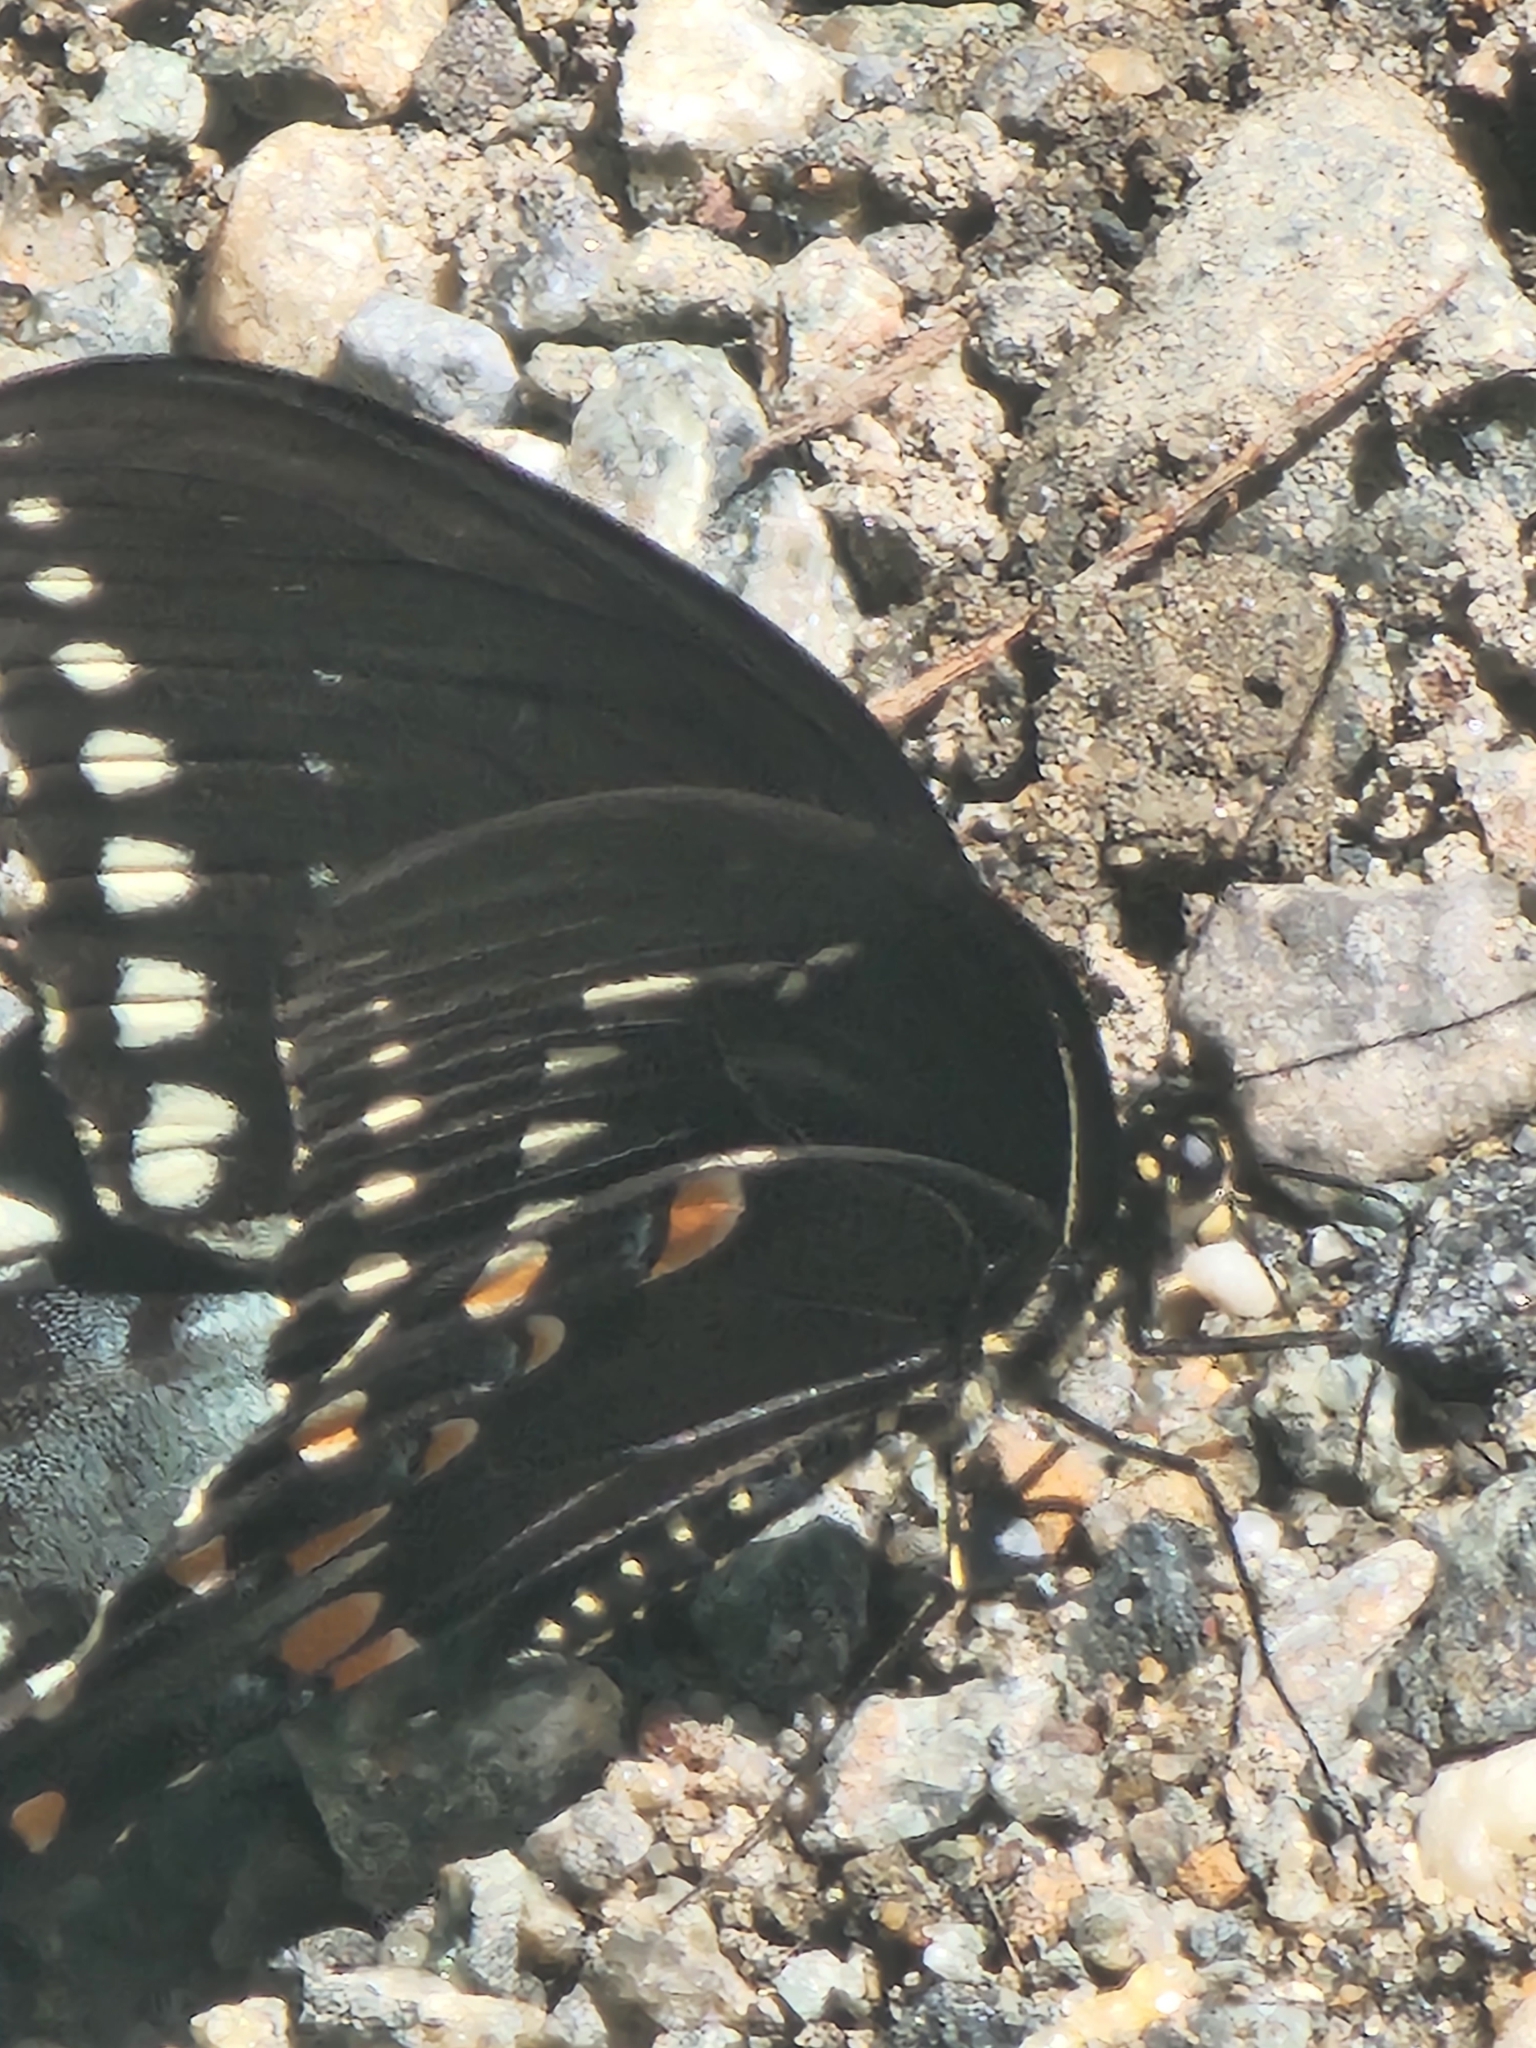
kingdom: Animalia
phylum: Arthropoda
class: Insecta
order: Lepidoptera
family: Papilionidae
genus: Papilio
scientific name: Papilio troilus
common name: Spicebush swallowtail
